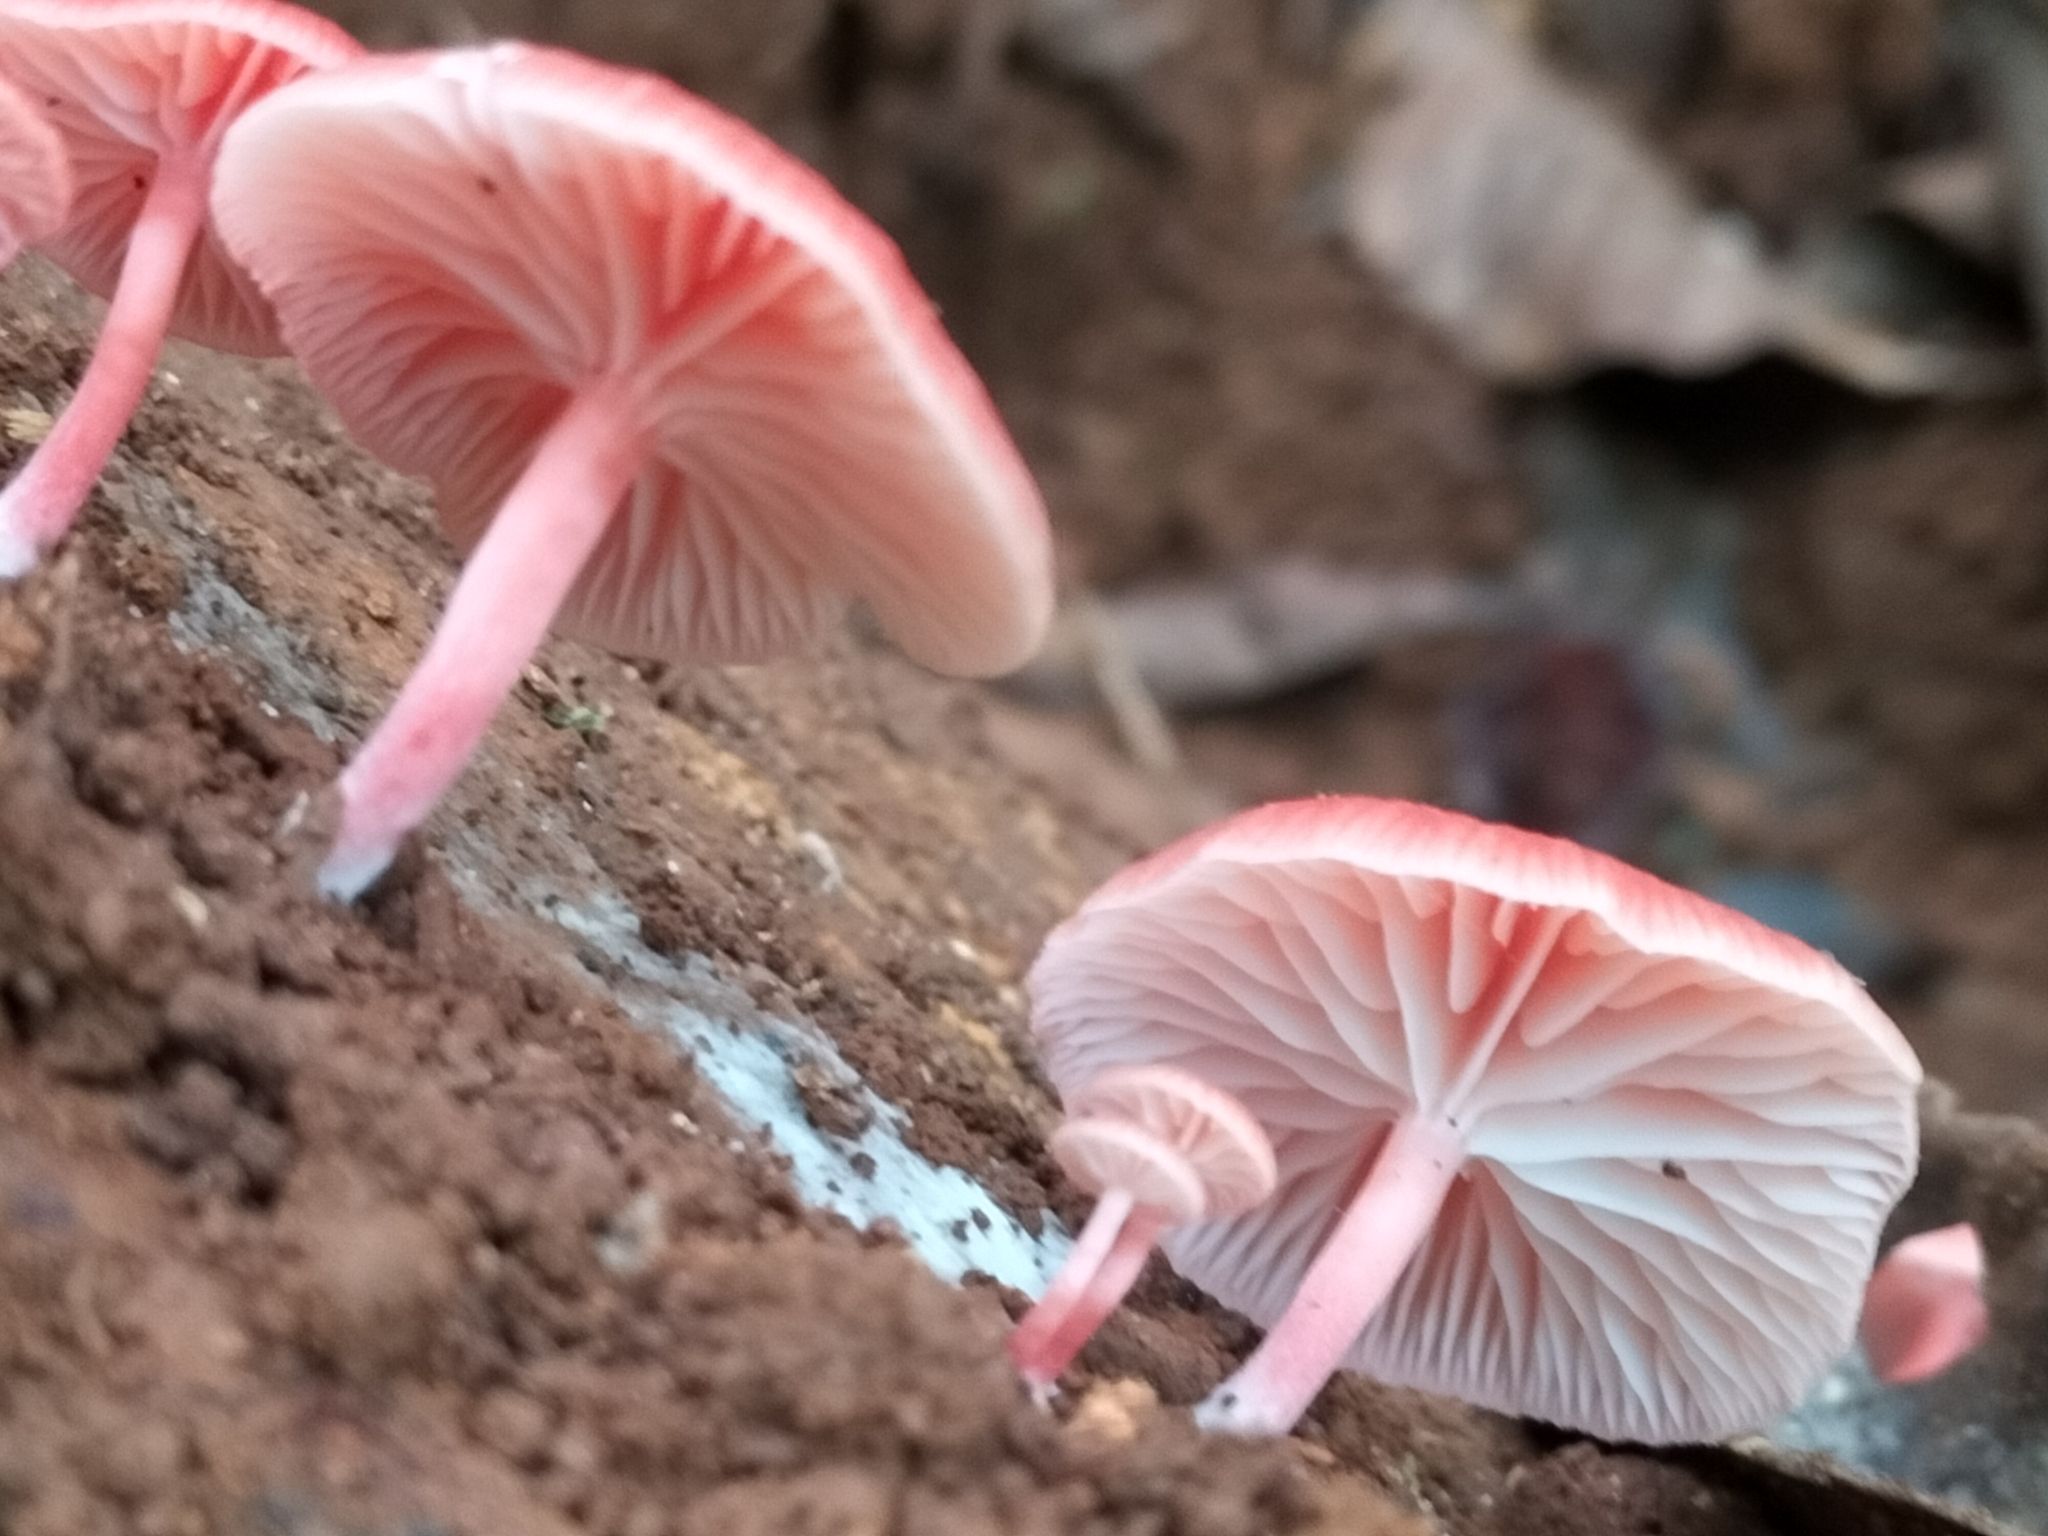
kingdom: Fungi
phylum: Basidiomycota
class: Agaricomycetes
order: Agaricales
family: Mycenaceae
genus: Mycena
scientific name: Mycena roseilignicola
